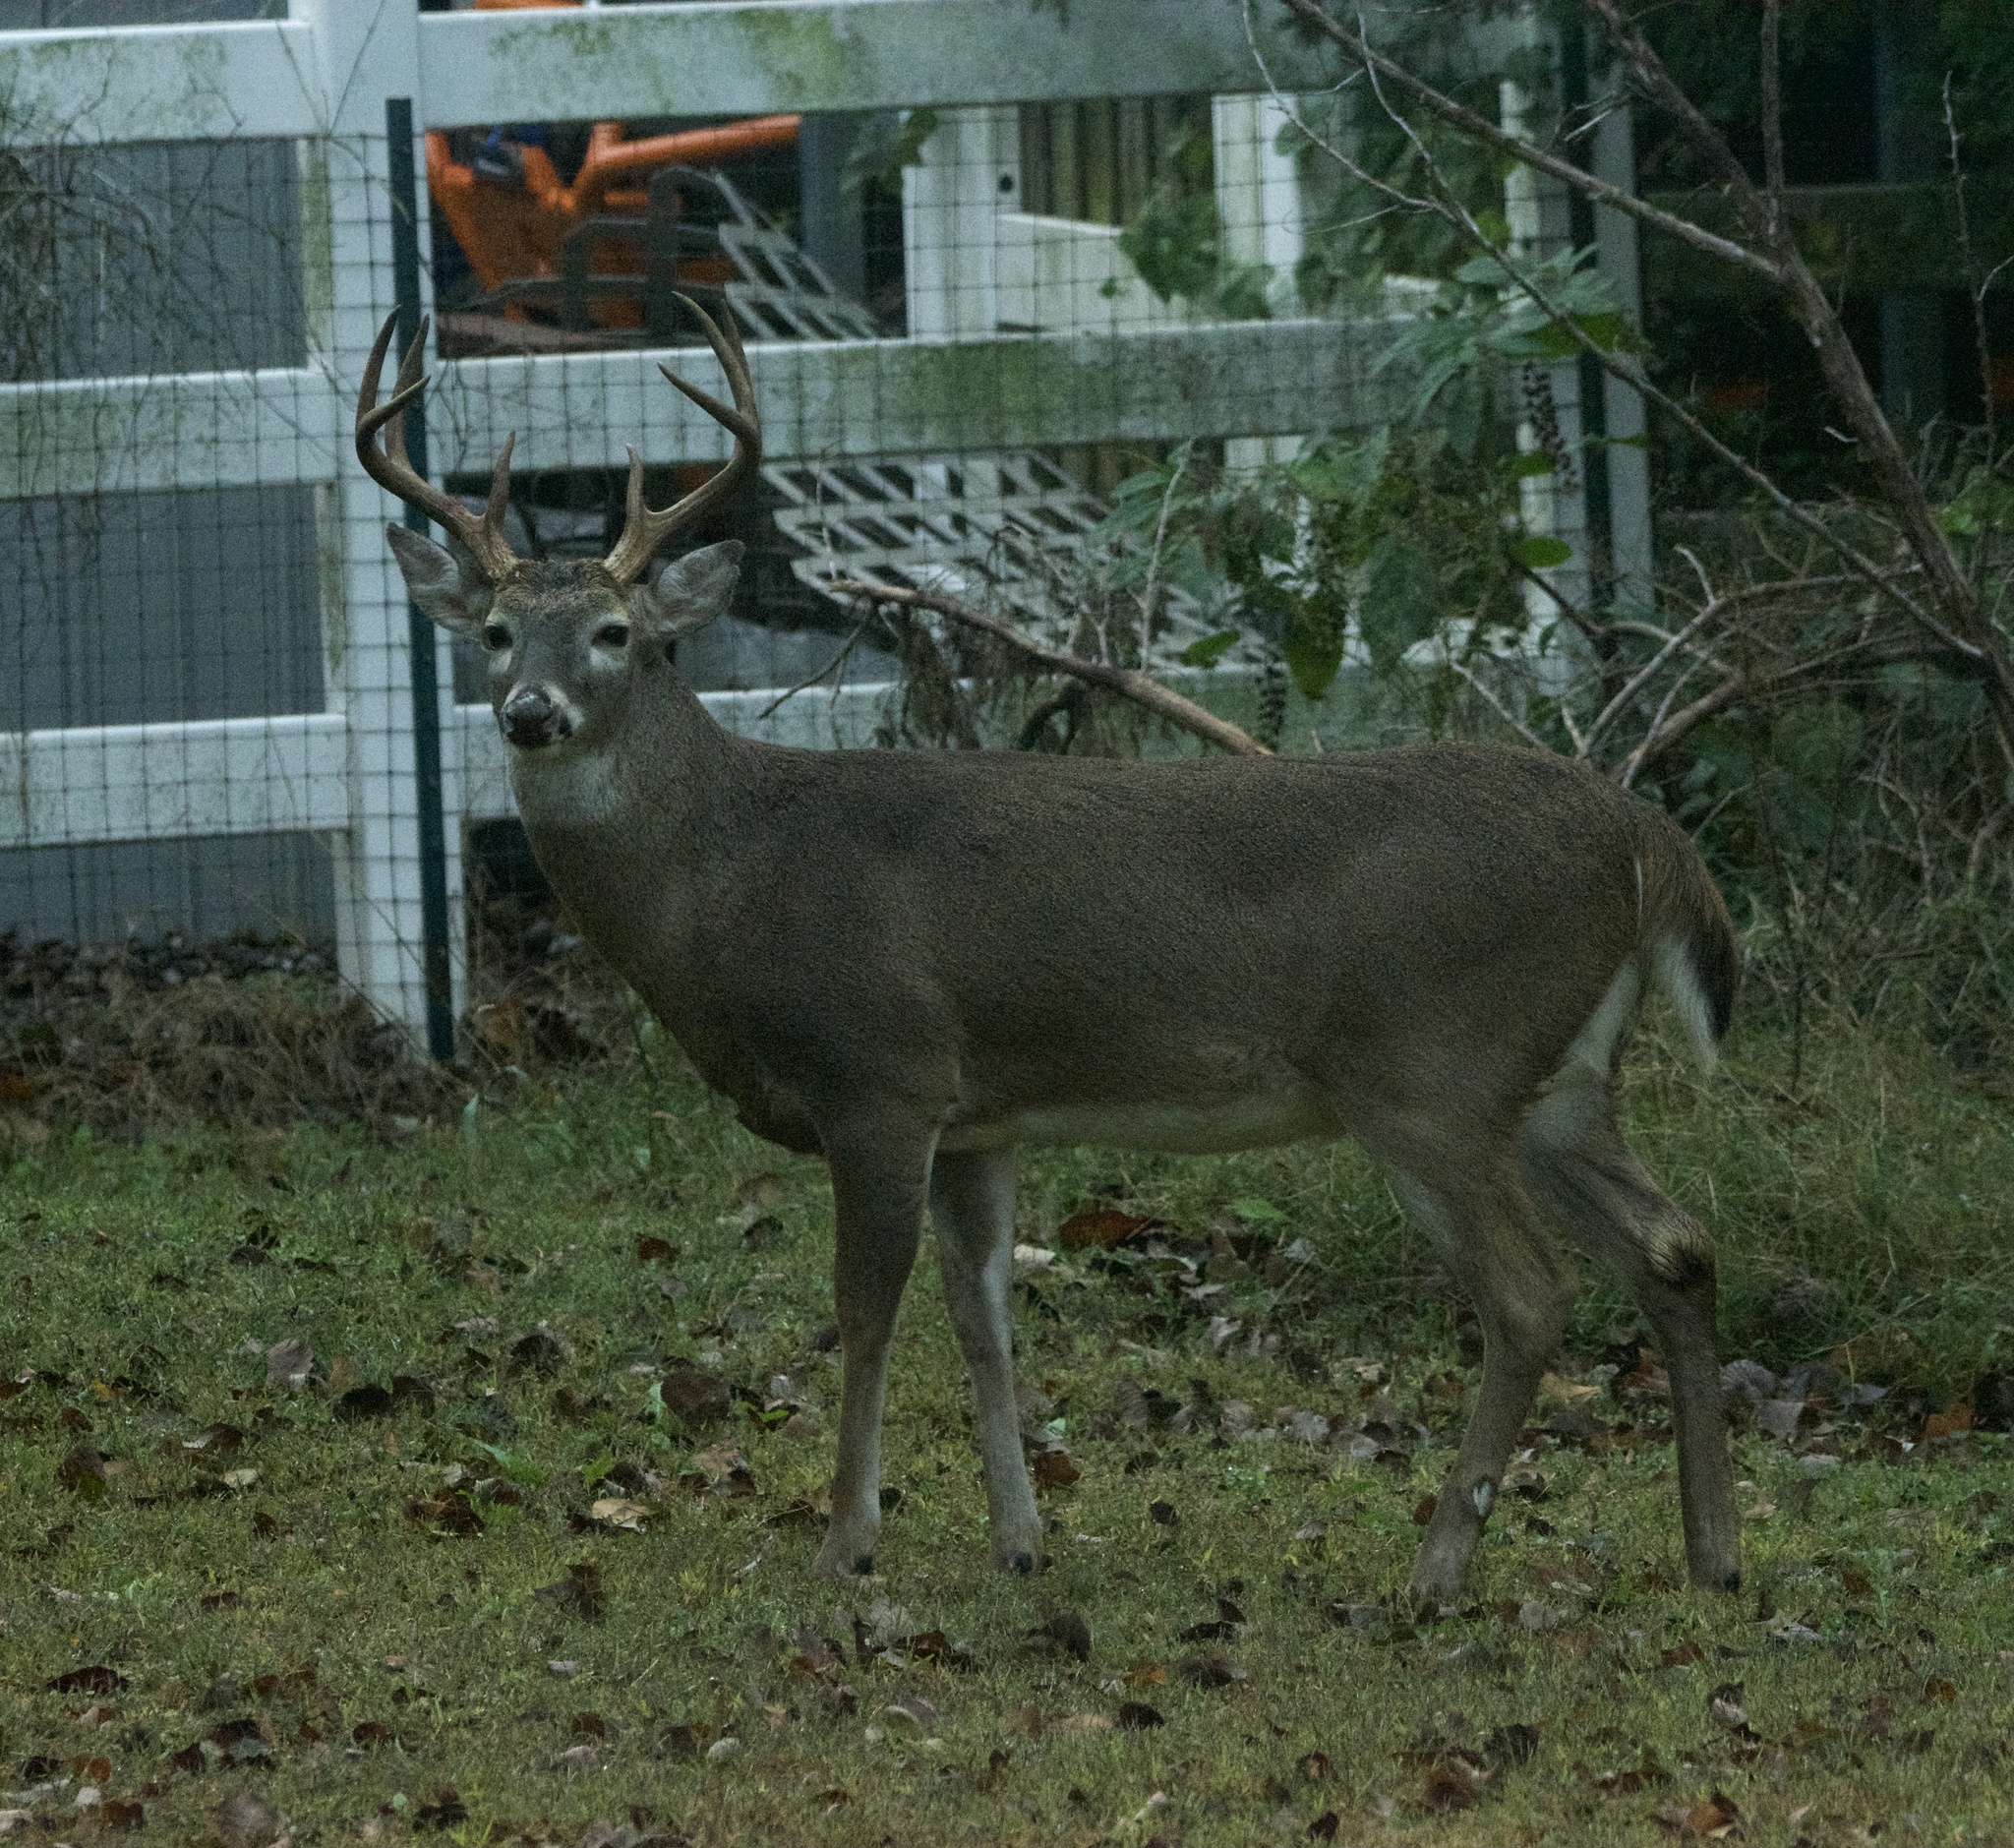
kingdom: Animalia
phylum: Chordata
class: Mammalia
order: Artiodactyla
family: Cervidae
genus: Odocoileus
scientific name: Odocoileus virginianus
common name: White-tailed deer
